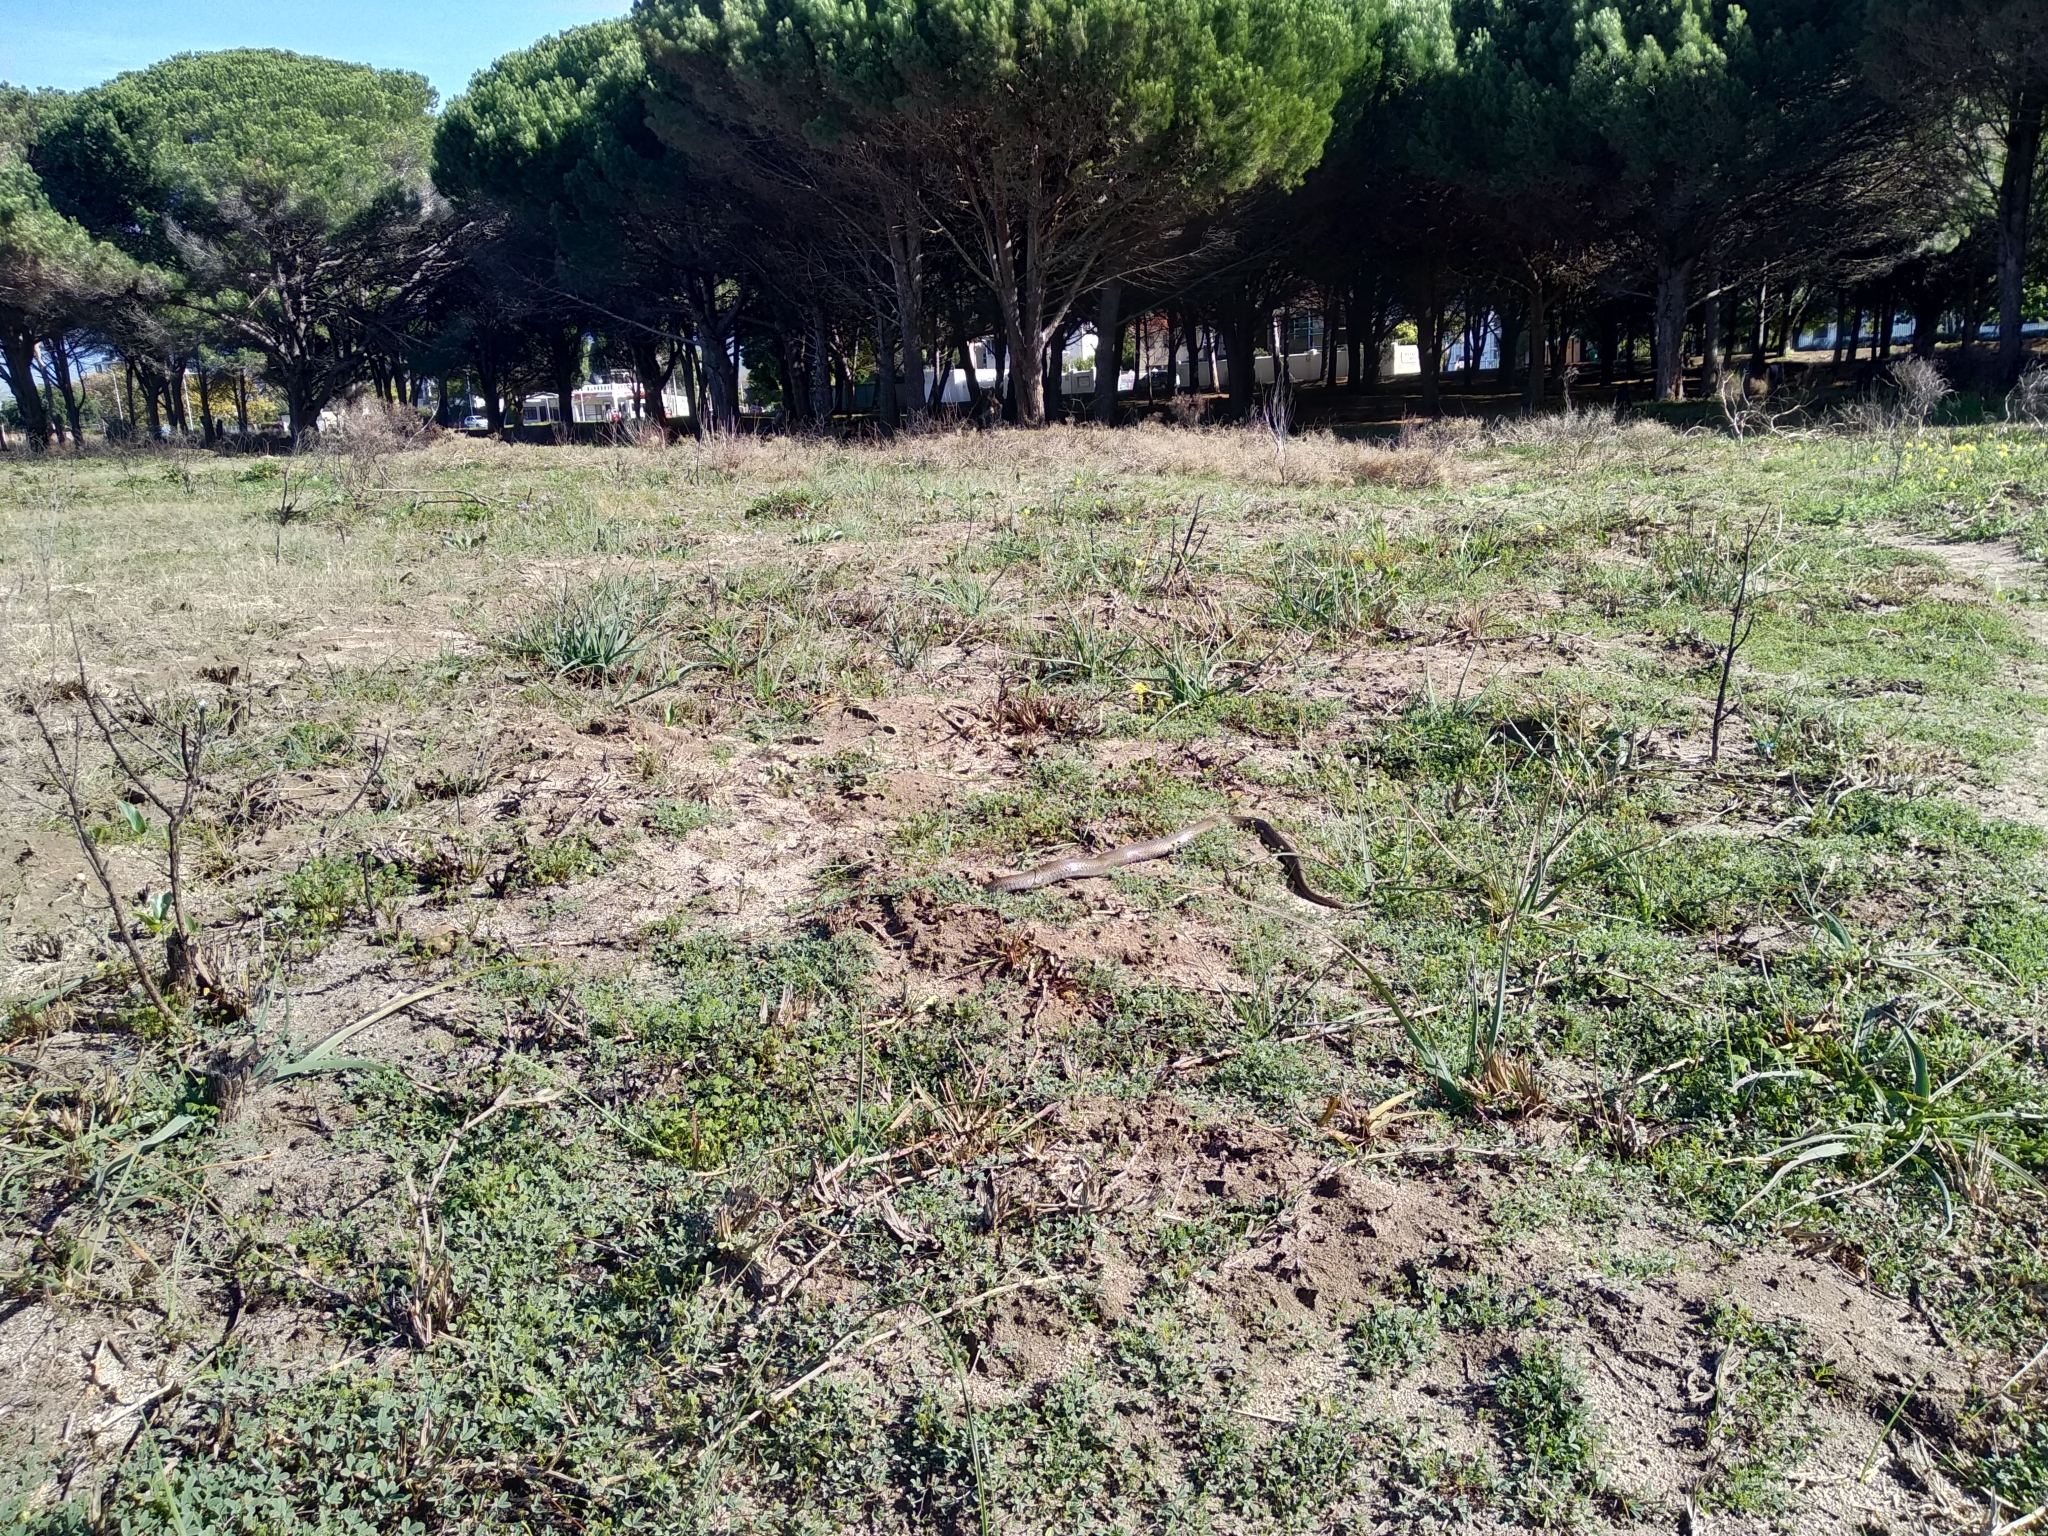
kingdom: Animalia
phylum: Chordata
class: Squamata
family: Pseudaspididae
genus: Pseudaspis
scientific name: Pseudaspis cana
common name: Mole snake
